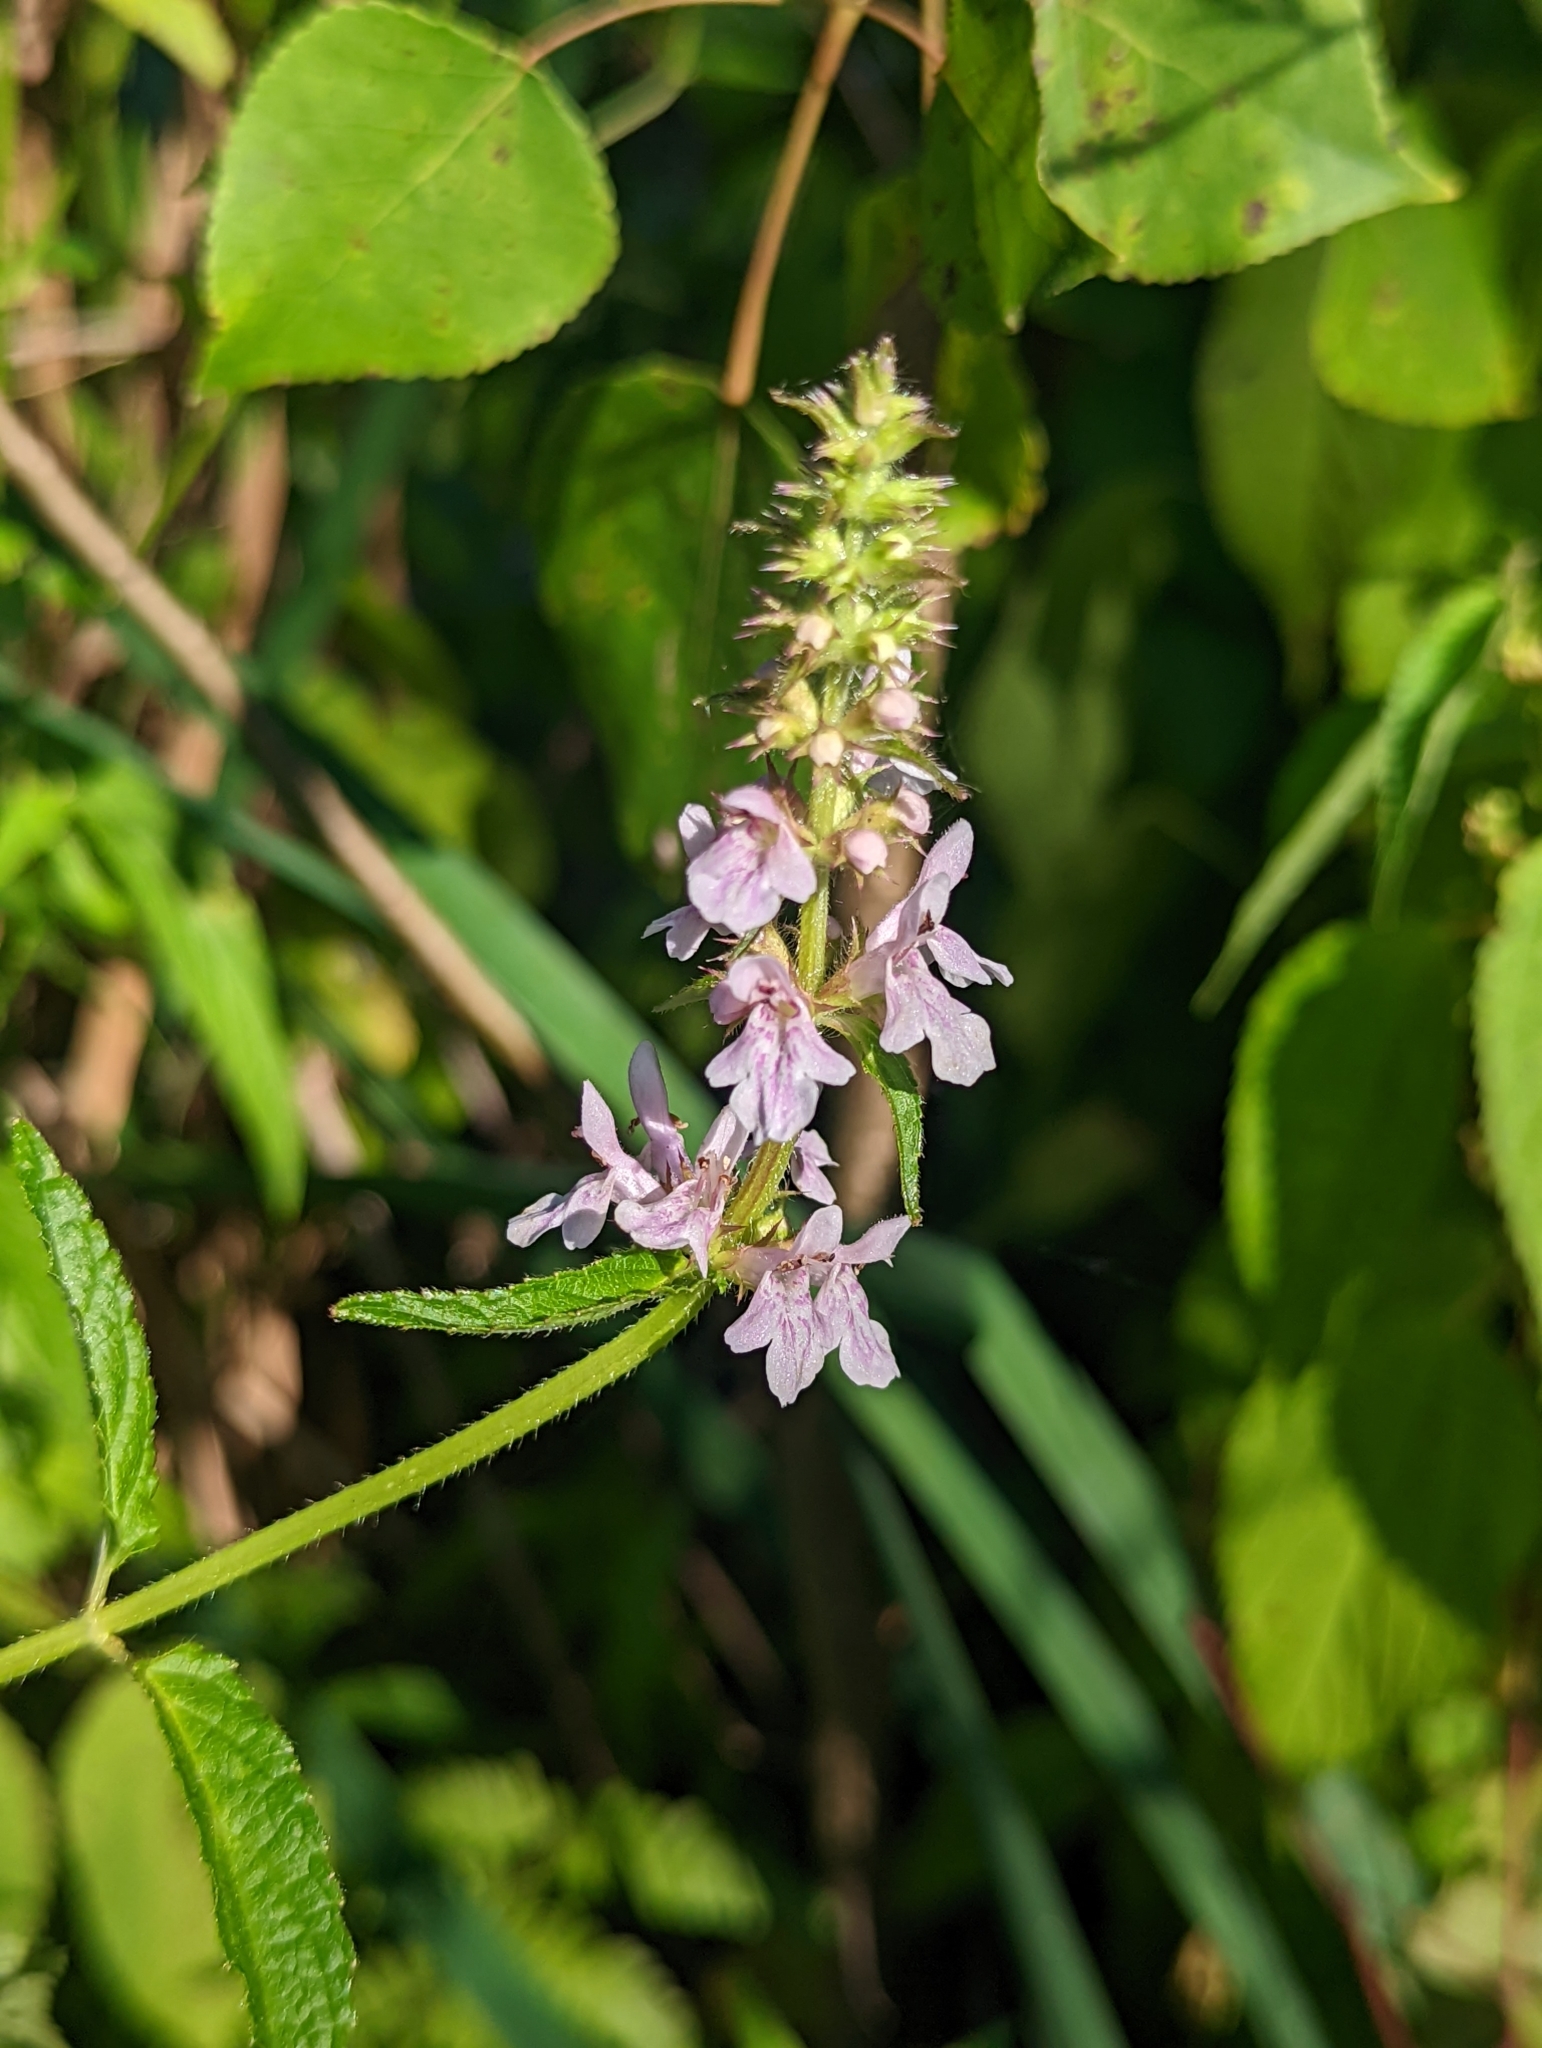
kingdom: Plantae
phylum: Tracheophyta
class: Magnoliopsida
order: Lamiales
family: Lamiaceae
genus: Stachys
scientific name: Stachys pilosa
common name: Hairy hedge-nettle
